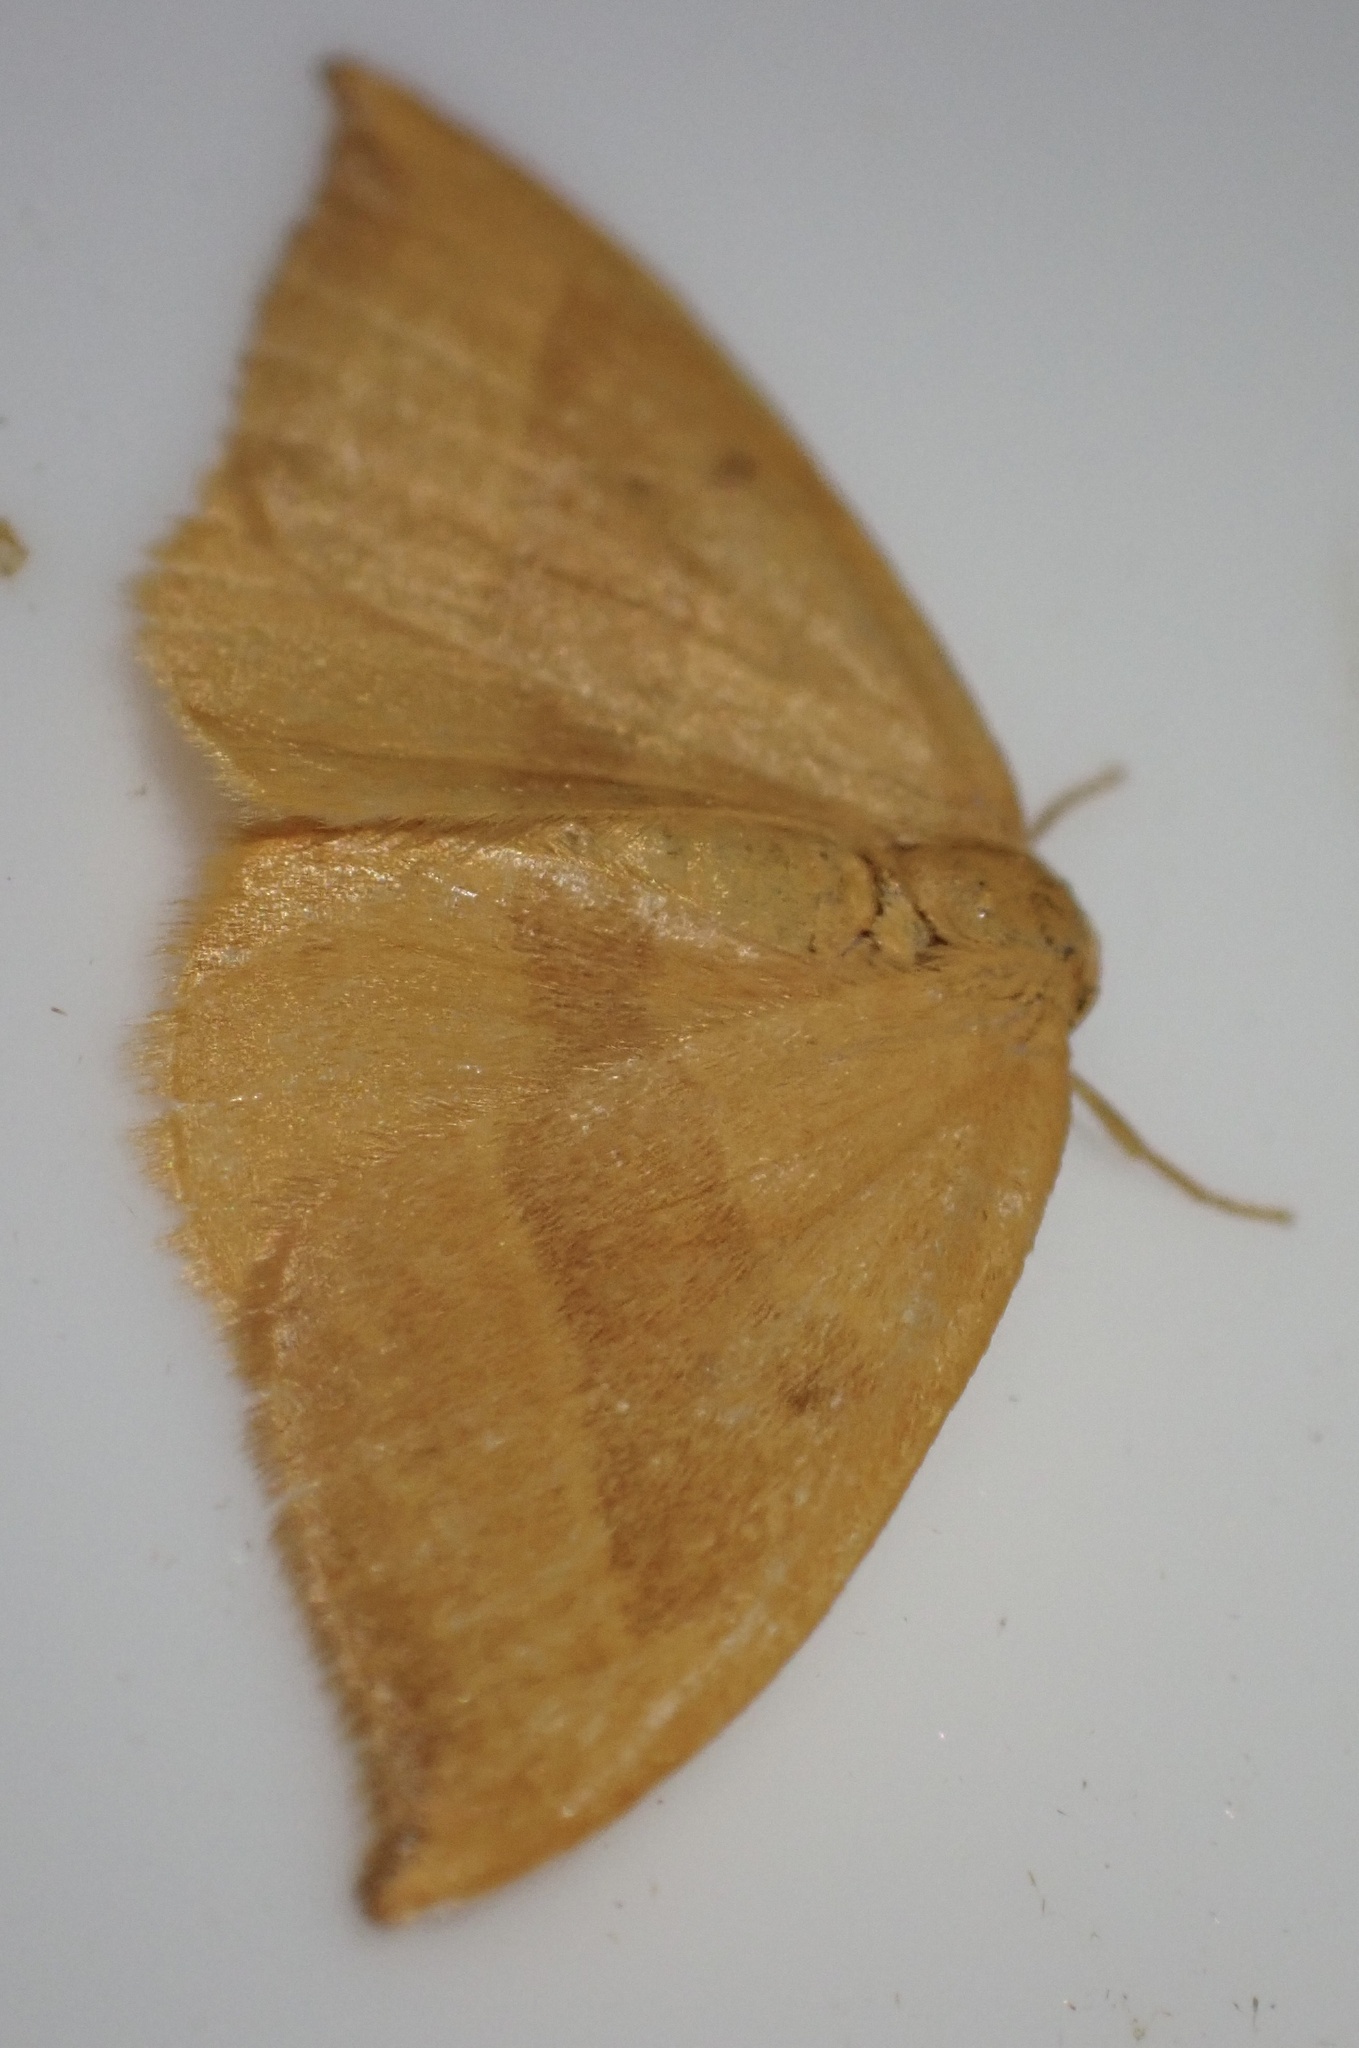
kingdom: Animalia
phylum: Arthropoda
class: Insecta
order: Lepidoptera
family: Drepanidae
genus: Watsonalla
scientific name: Watsonalla cultraria
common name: Barred hook-tip
